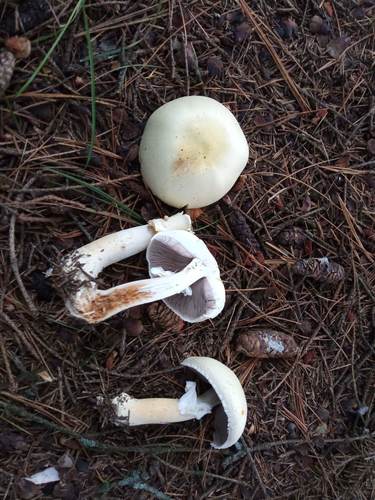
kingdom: Fungi
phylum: Basidiomycota
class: Agaricomycetes
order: Agaricales
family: Agaricaceae
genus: Agaricus
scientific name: Agaricus sylvicola
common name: Wood mushroom
